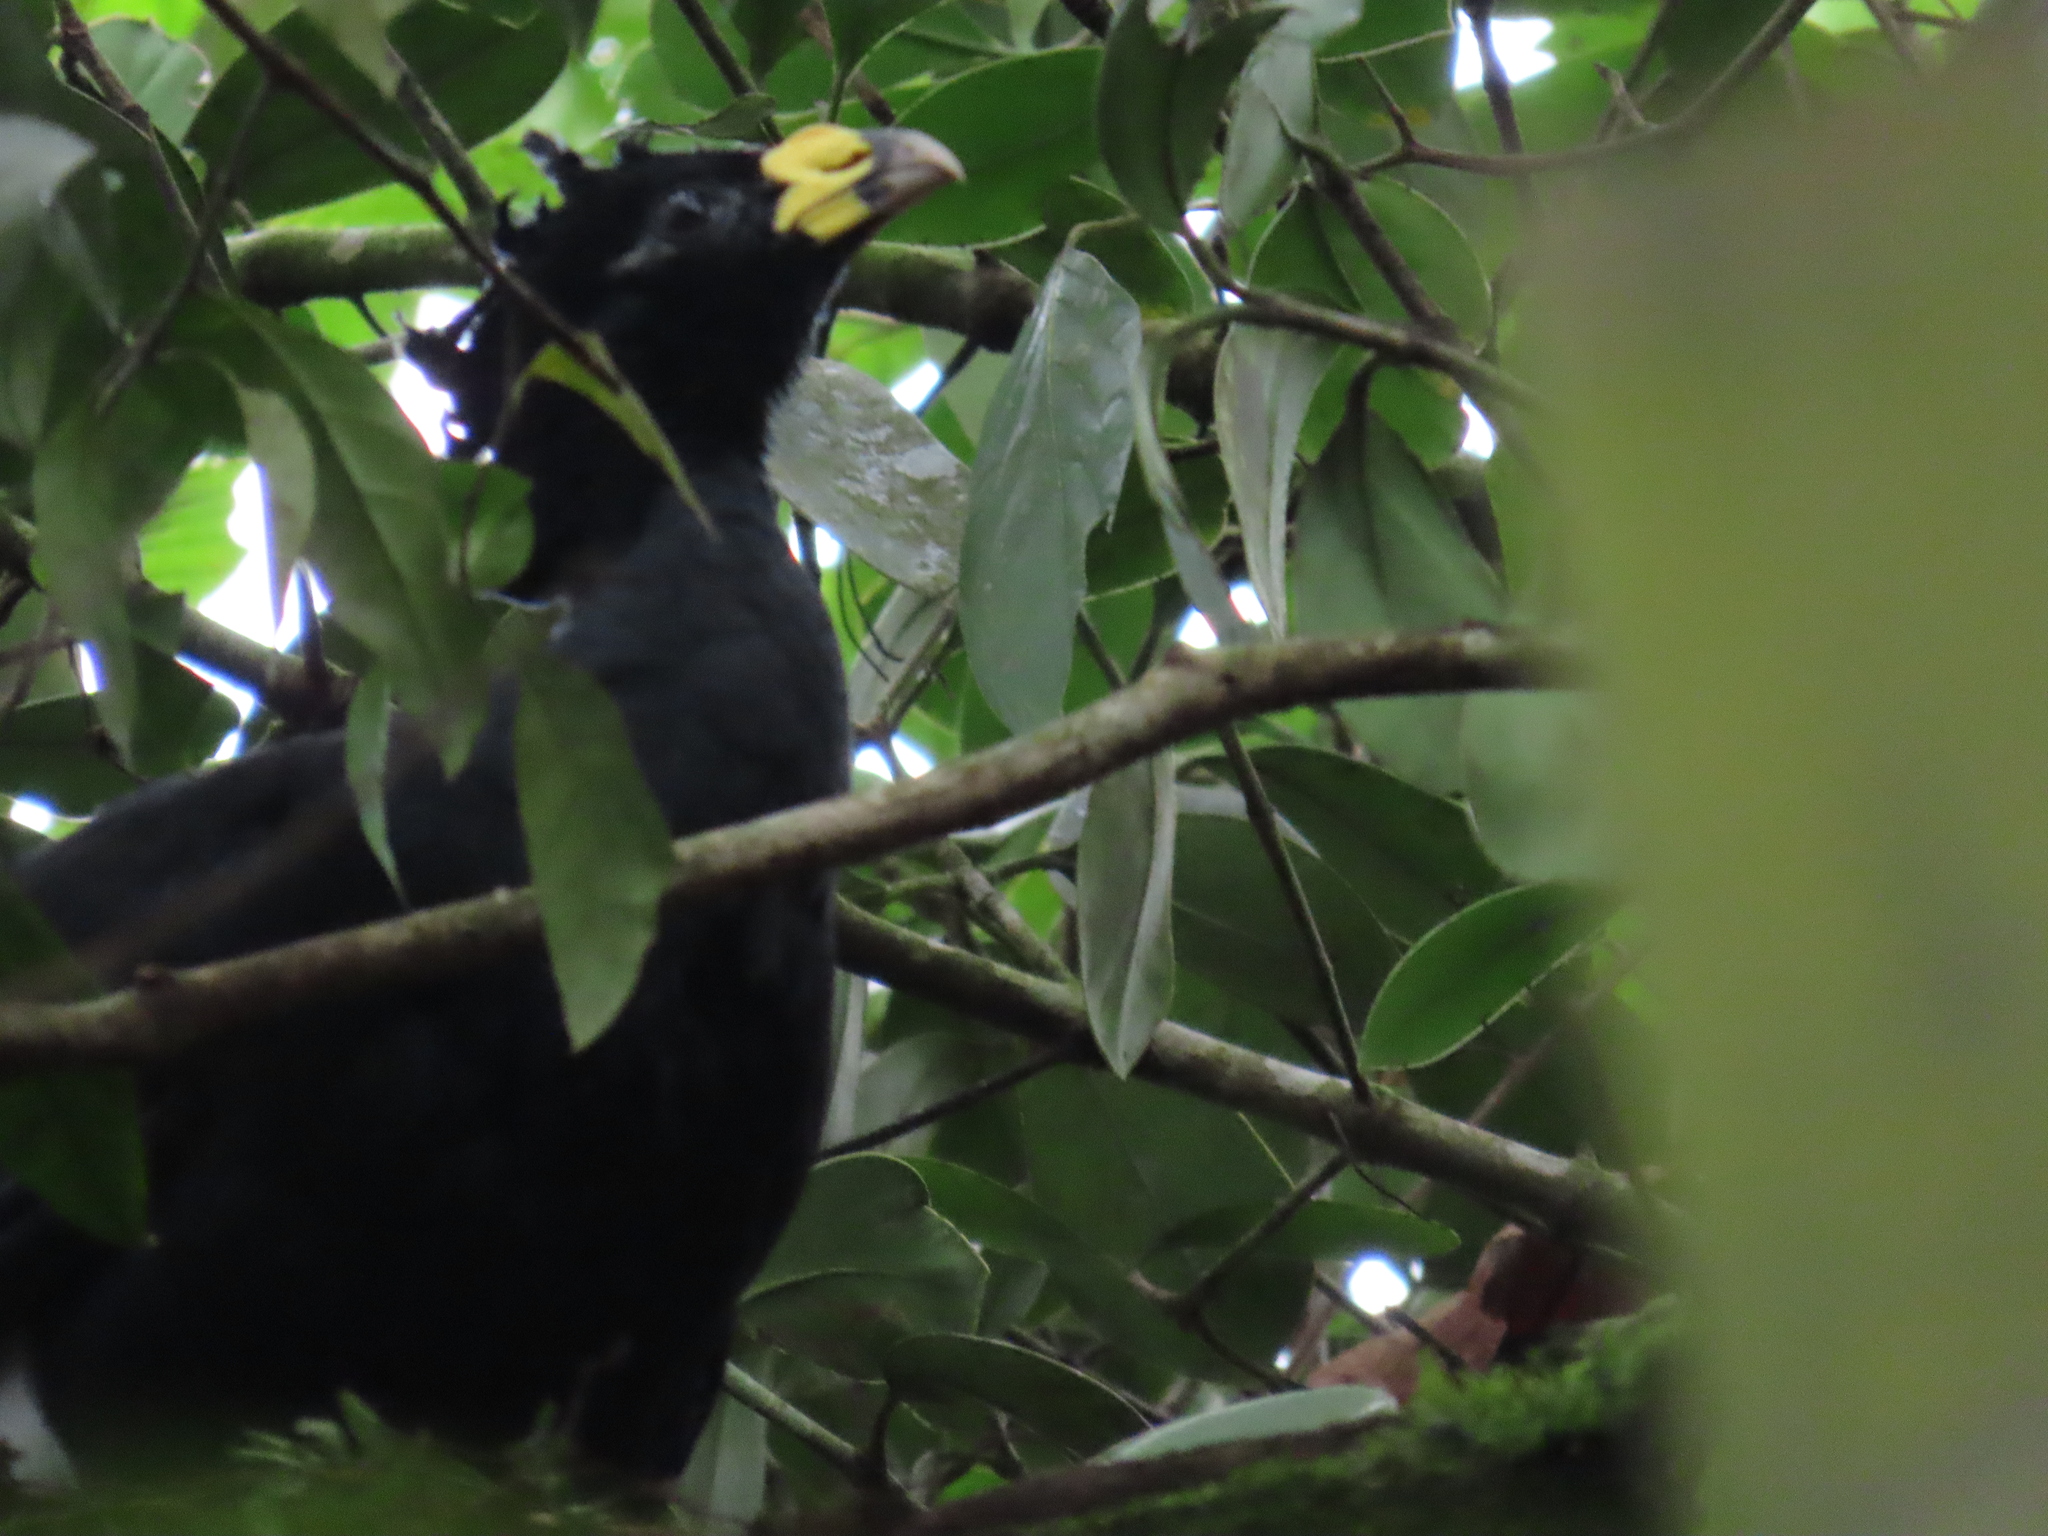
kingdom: Animalia
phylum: Chordata
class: Aves
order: Galliformes
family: Cracidae
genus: Crax
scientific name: Crax rubra
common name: Great curassow
